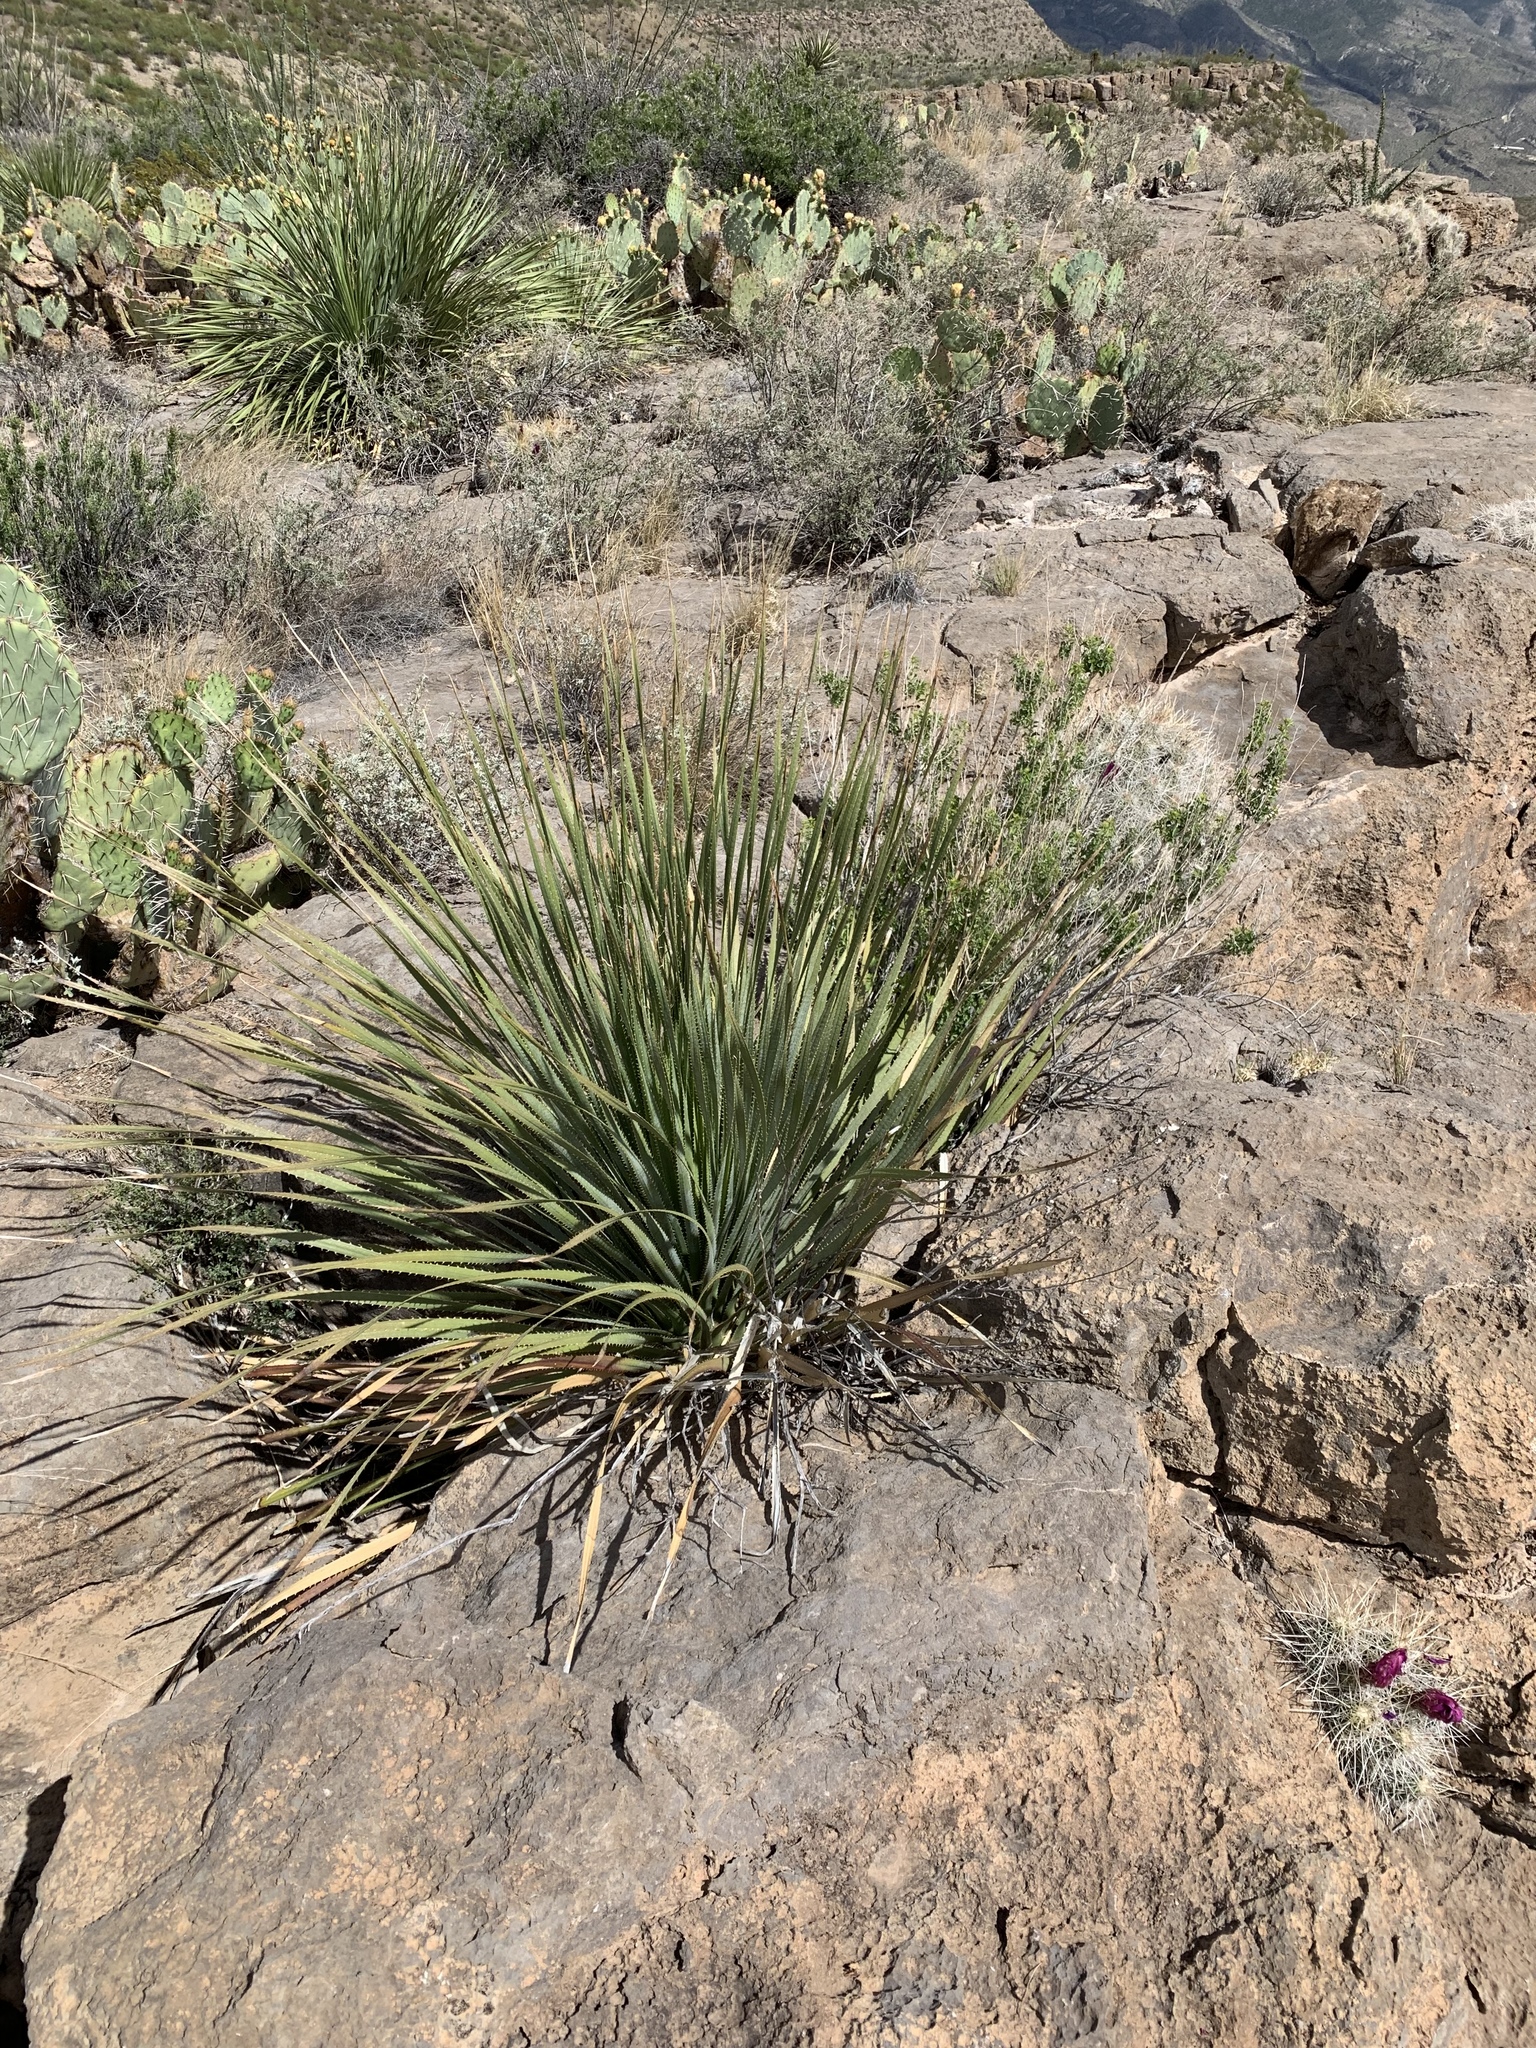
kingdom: Plantae
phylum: Tracheophyta
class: Liliopsida
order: Asparagales
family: Asparagaceae
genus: Dasylirion
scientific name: Dasylirion wheeleri
